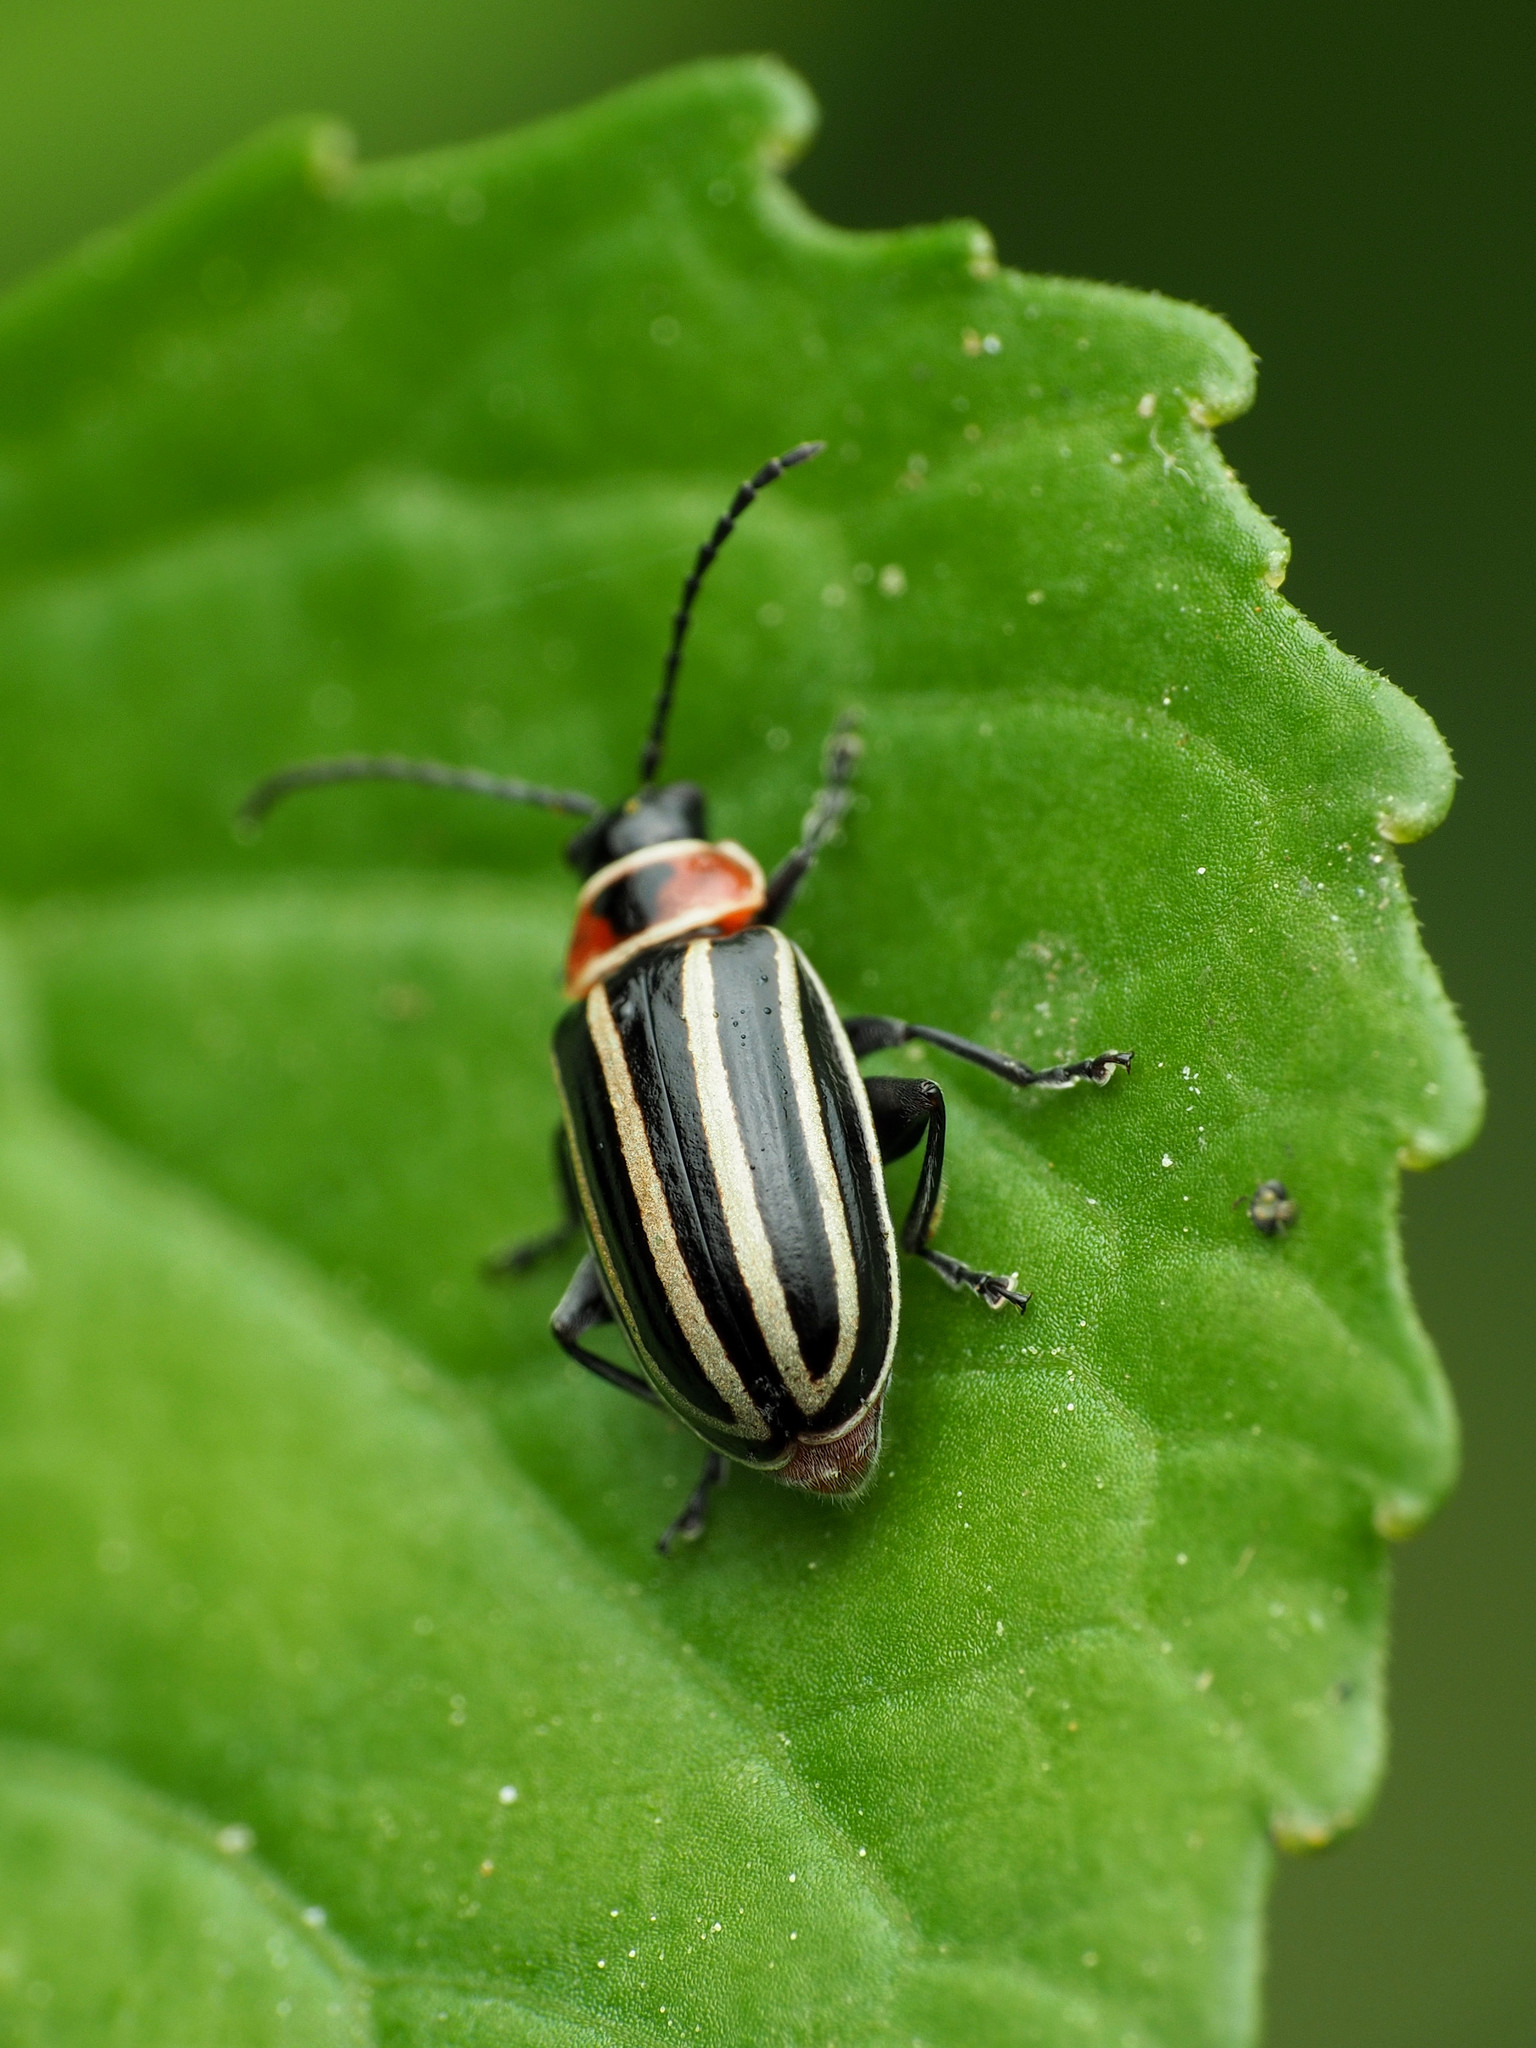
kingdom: Animalia
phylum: Arthropoda
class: Insecta
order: Coleoptera
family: Chrysomelidae
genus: Disonycha
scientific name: Disonycha pensylvanica
